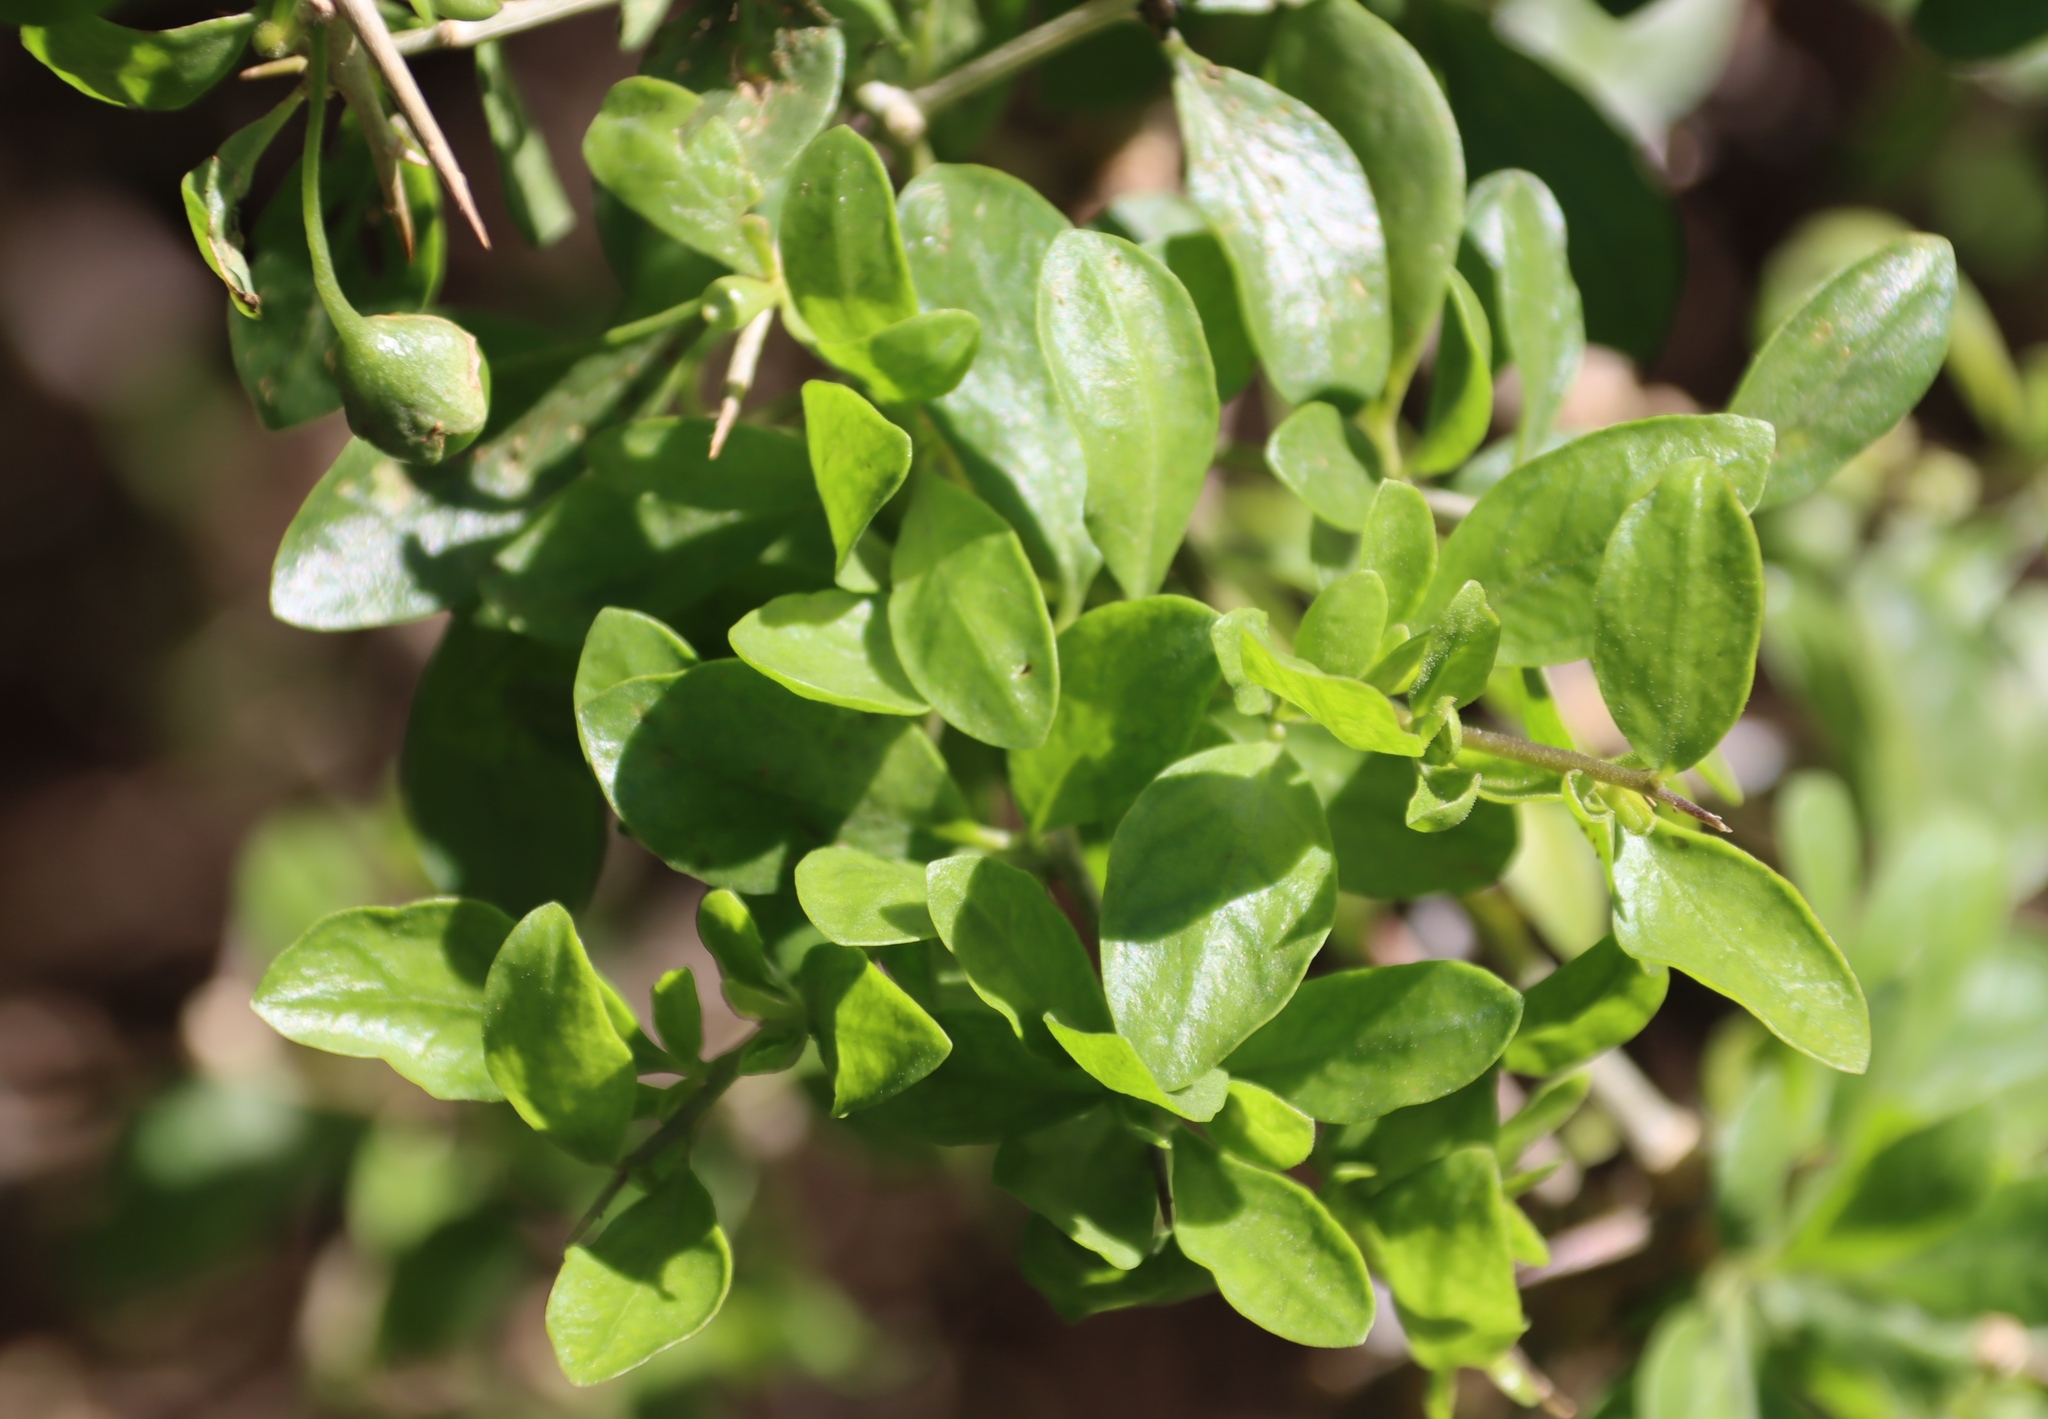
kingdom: Plantae
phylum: Tracheophyta
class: Magnoliopsida
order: Solanales
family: Solanaceae
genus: Lycium
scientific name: Lycium ferocissimum
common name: African boxthorn
